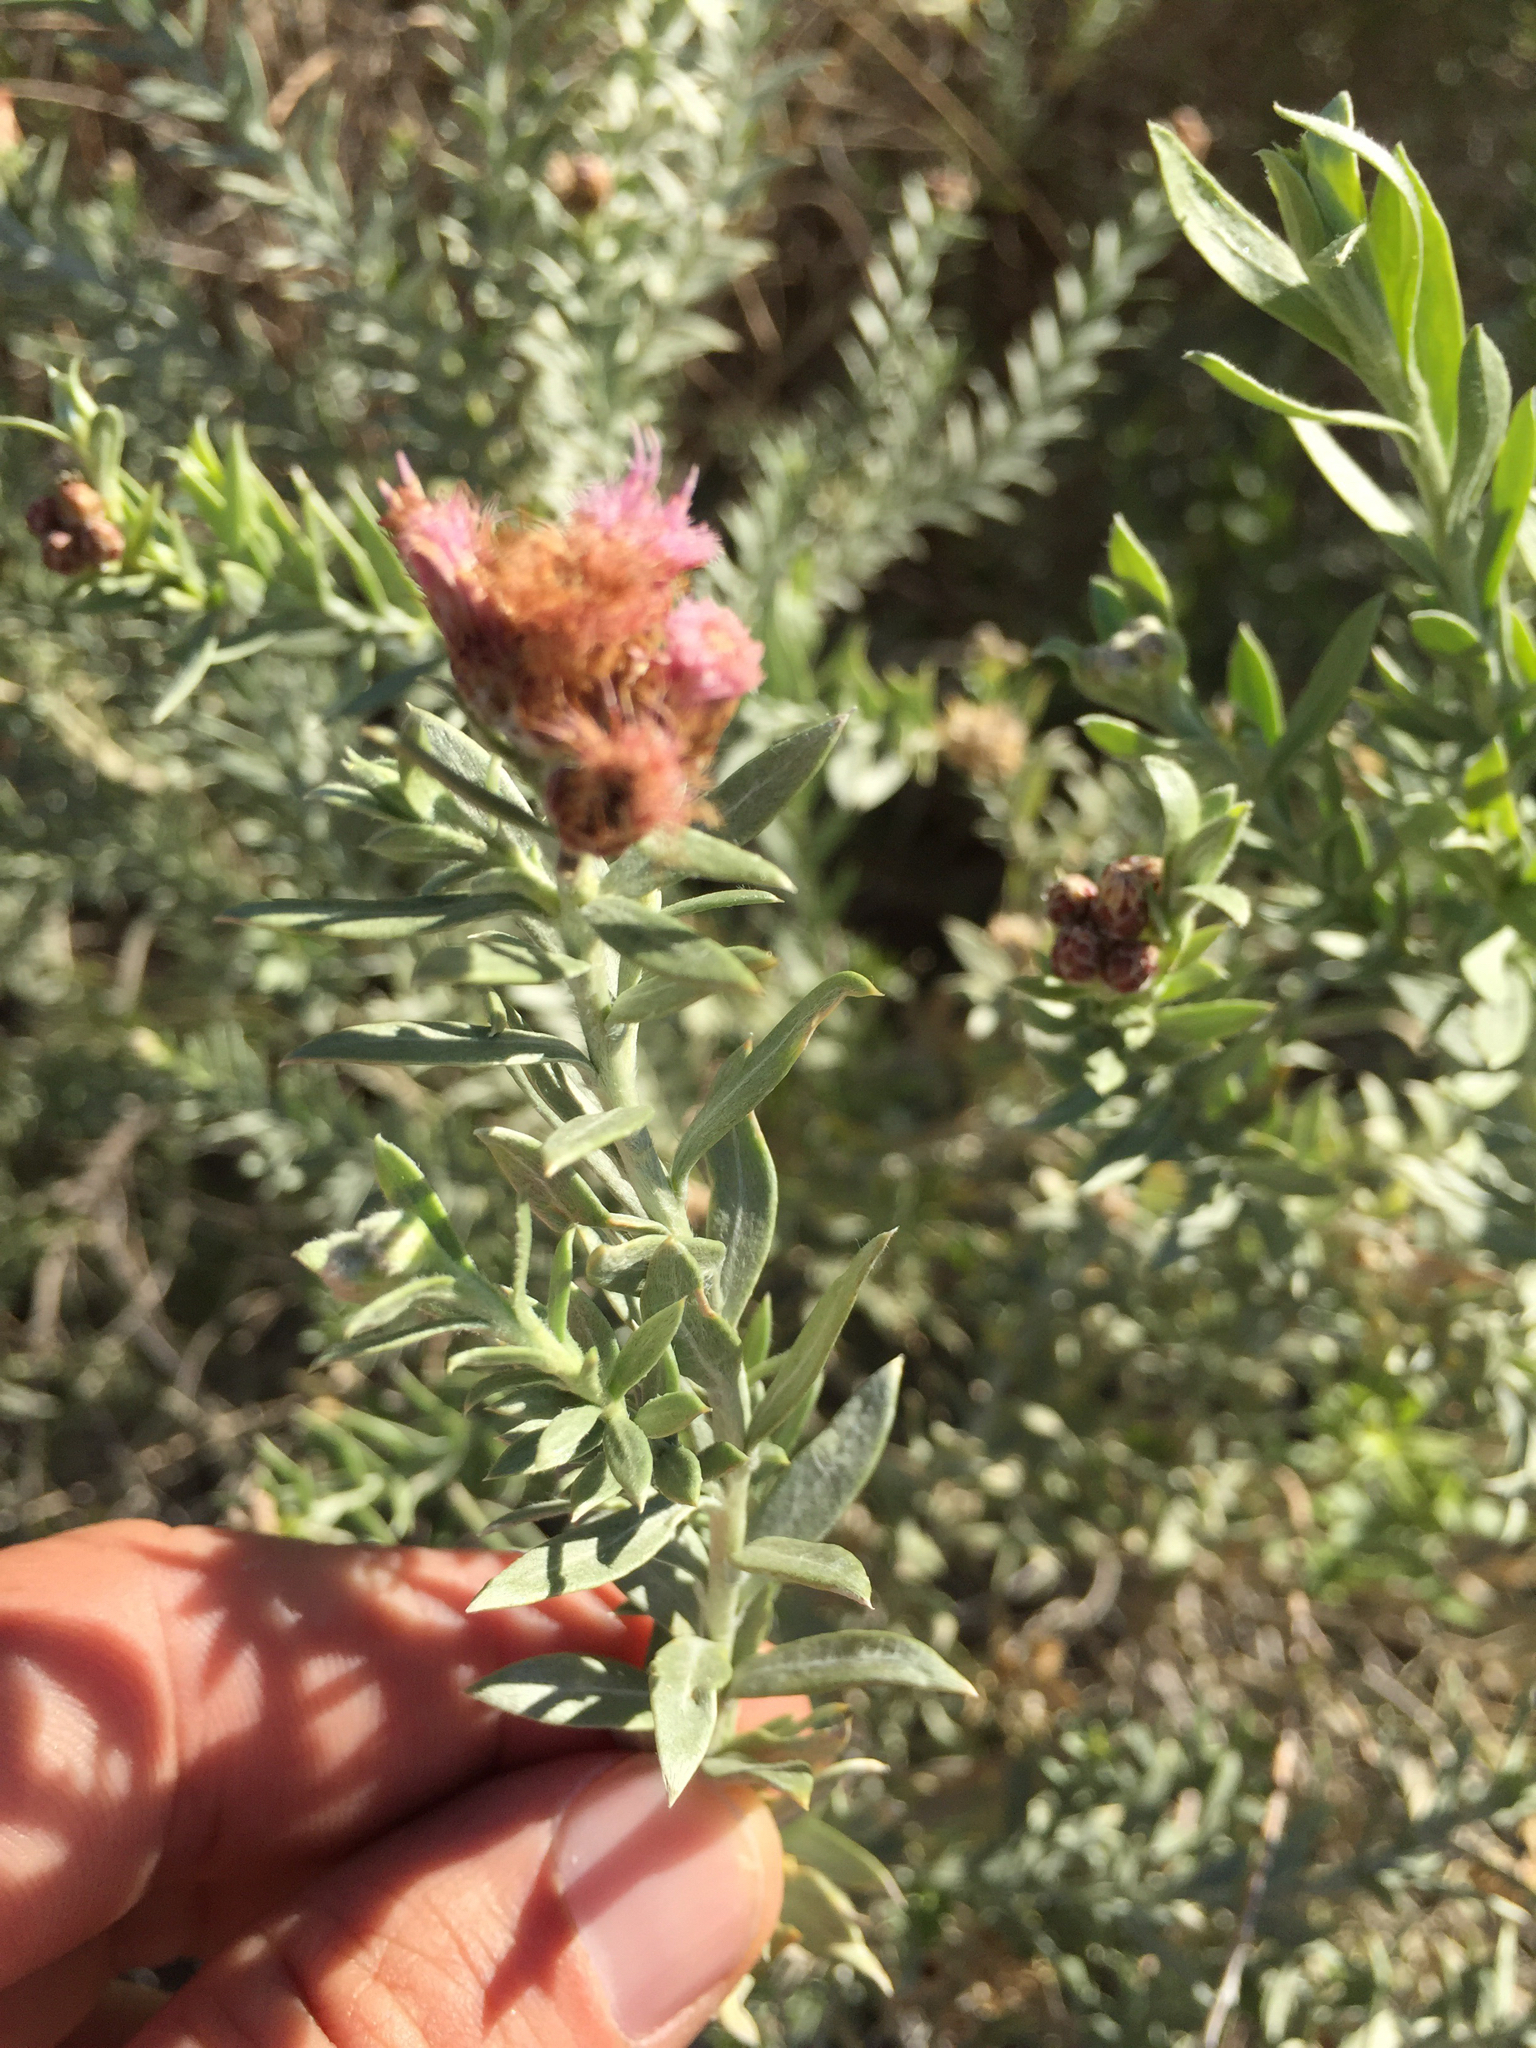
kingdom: Plantae
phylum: Tracheophyta
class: Magnoliopsida
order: Asterales
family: Asteraceae
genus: Pluchea
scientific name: Pluchea sericea
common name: Arrow-weed
